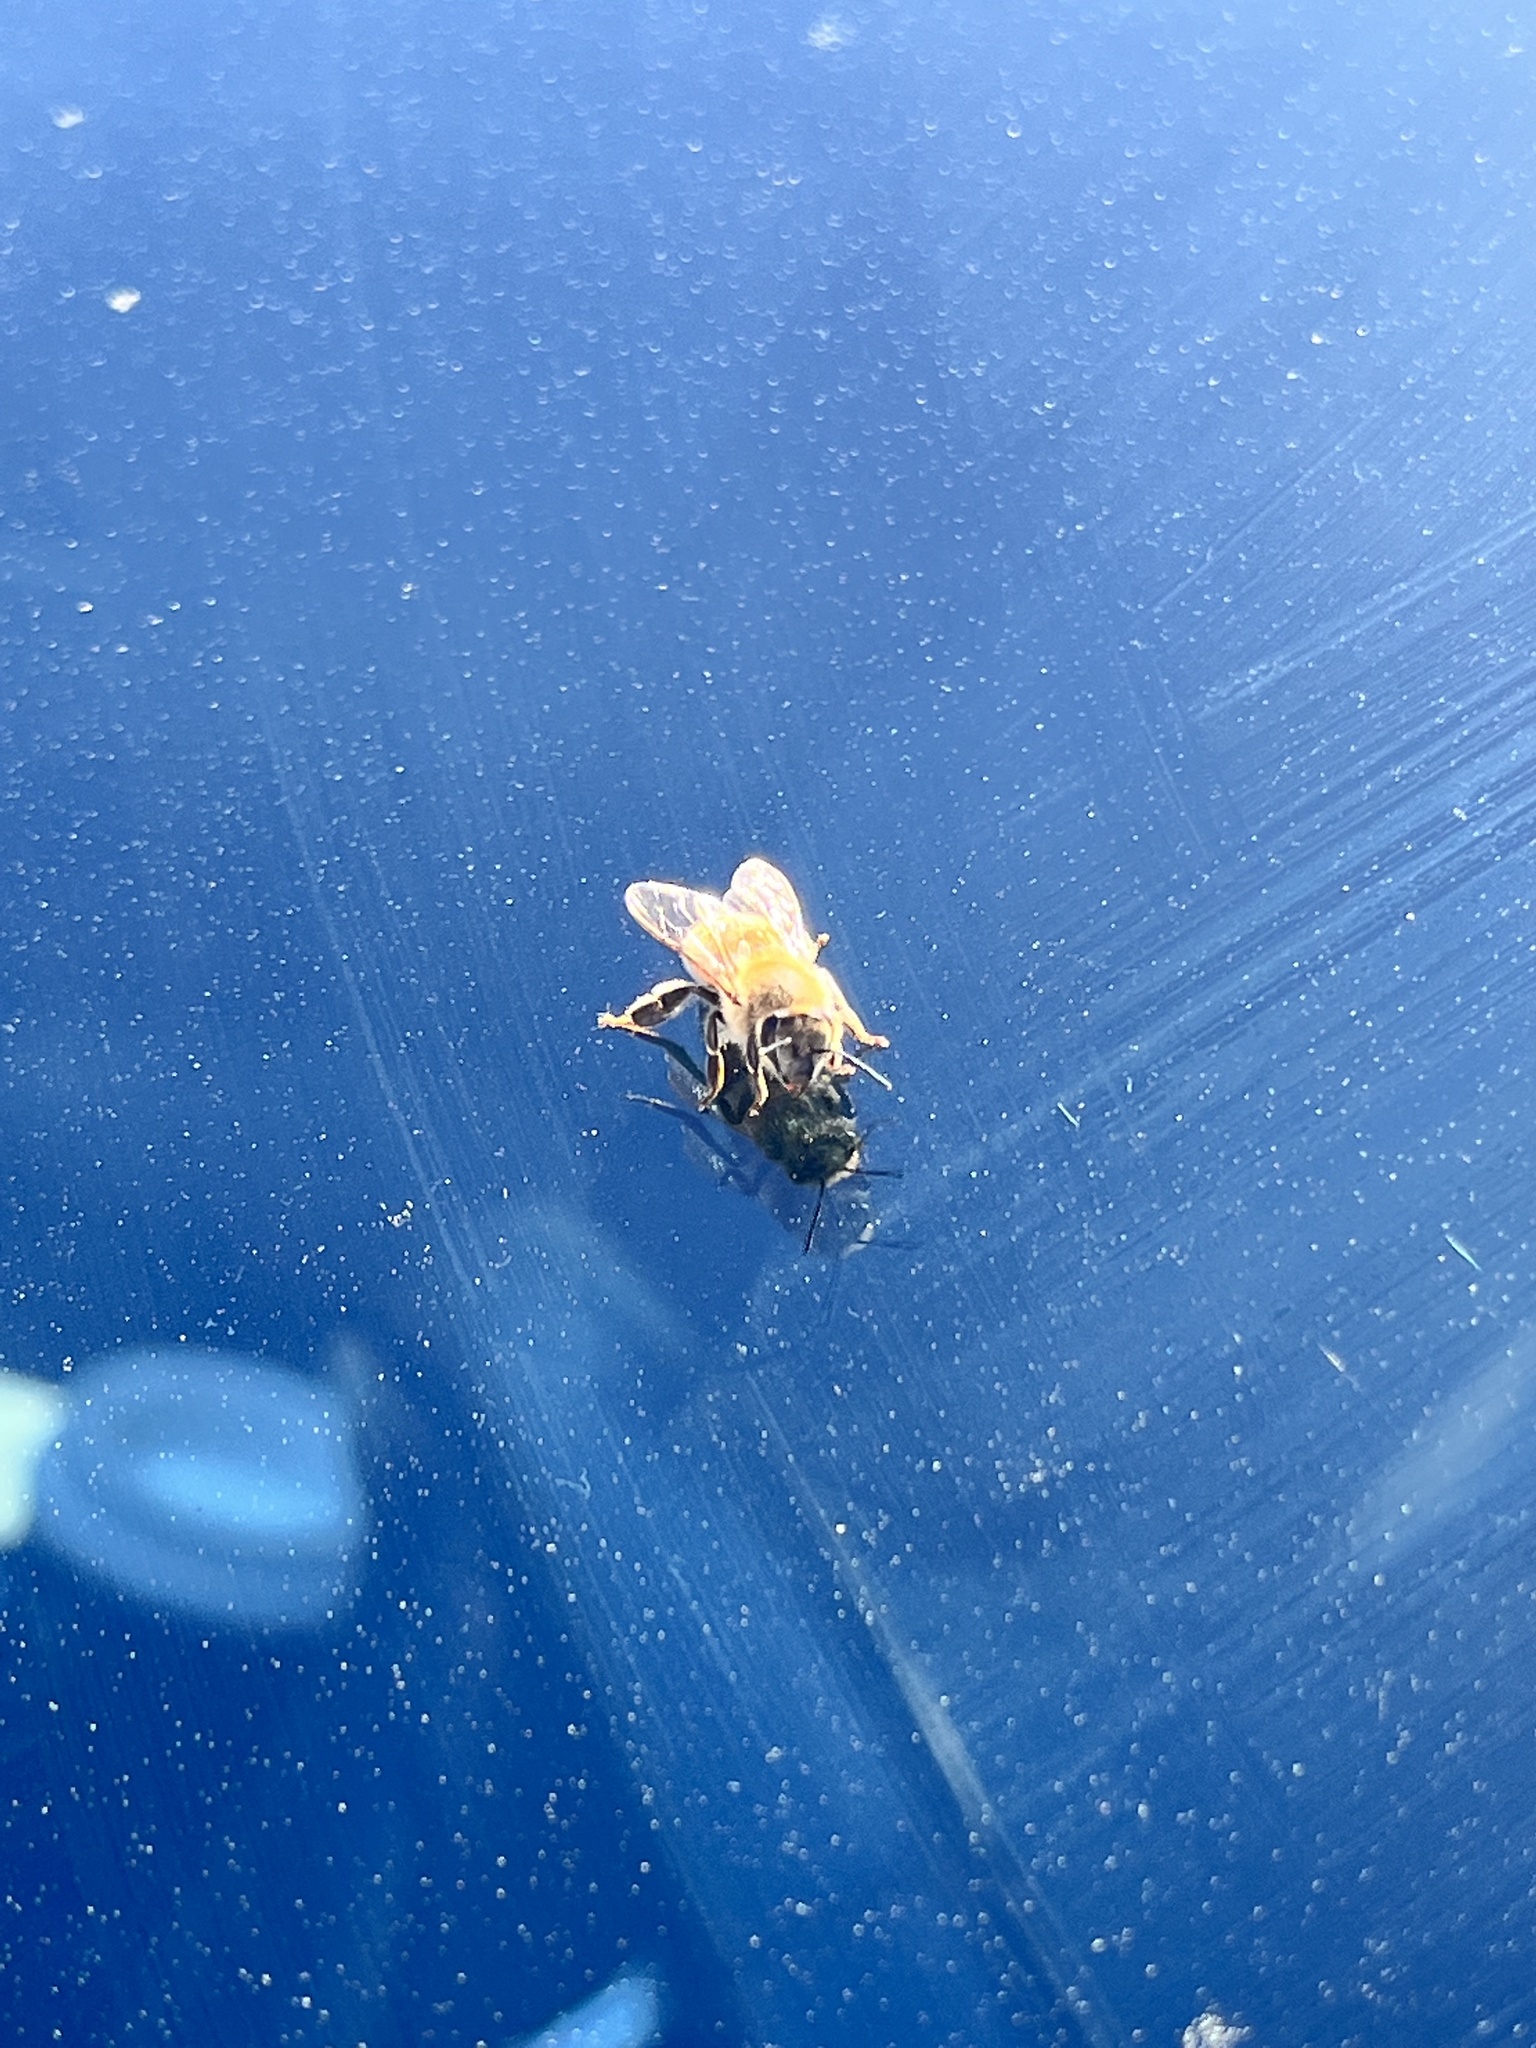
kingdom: Animalia
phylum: Arthropoda
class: Insecta
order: Hymenoptera
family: Apidae
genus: Apis
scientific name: Apis mellifera
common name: Honey bee
